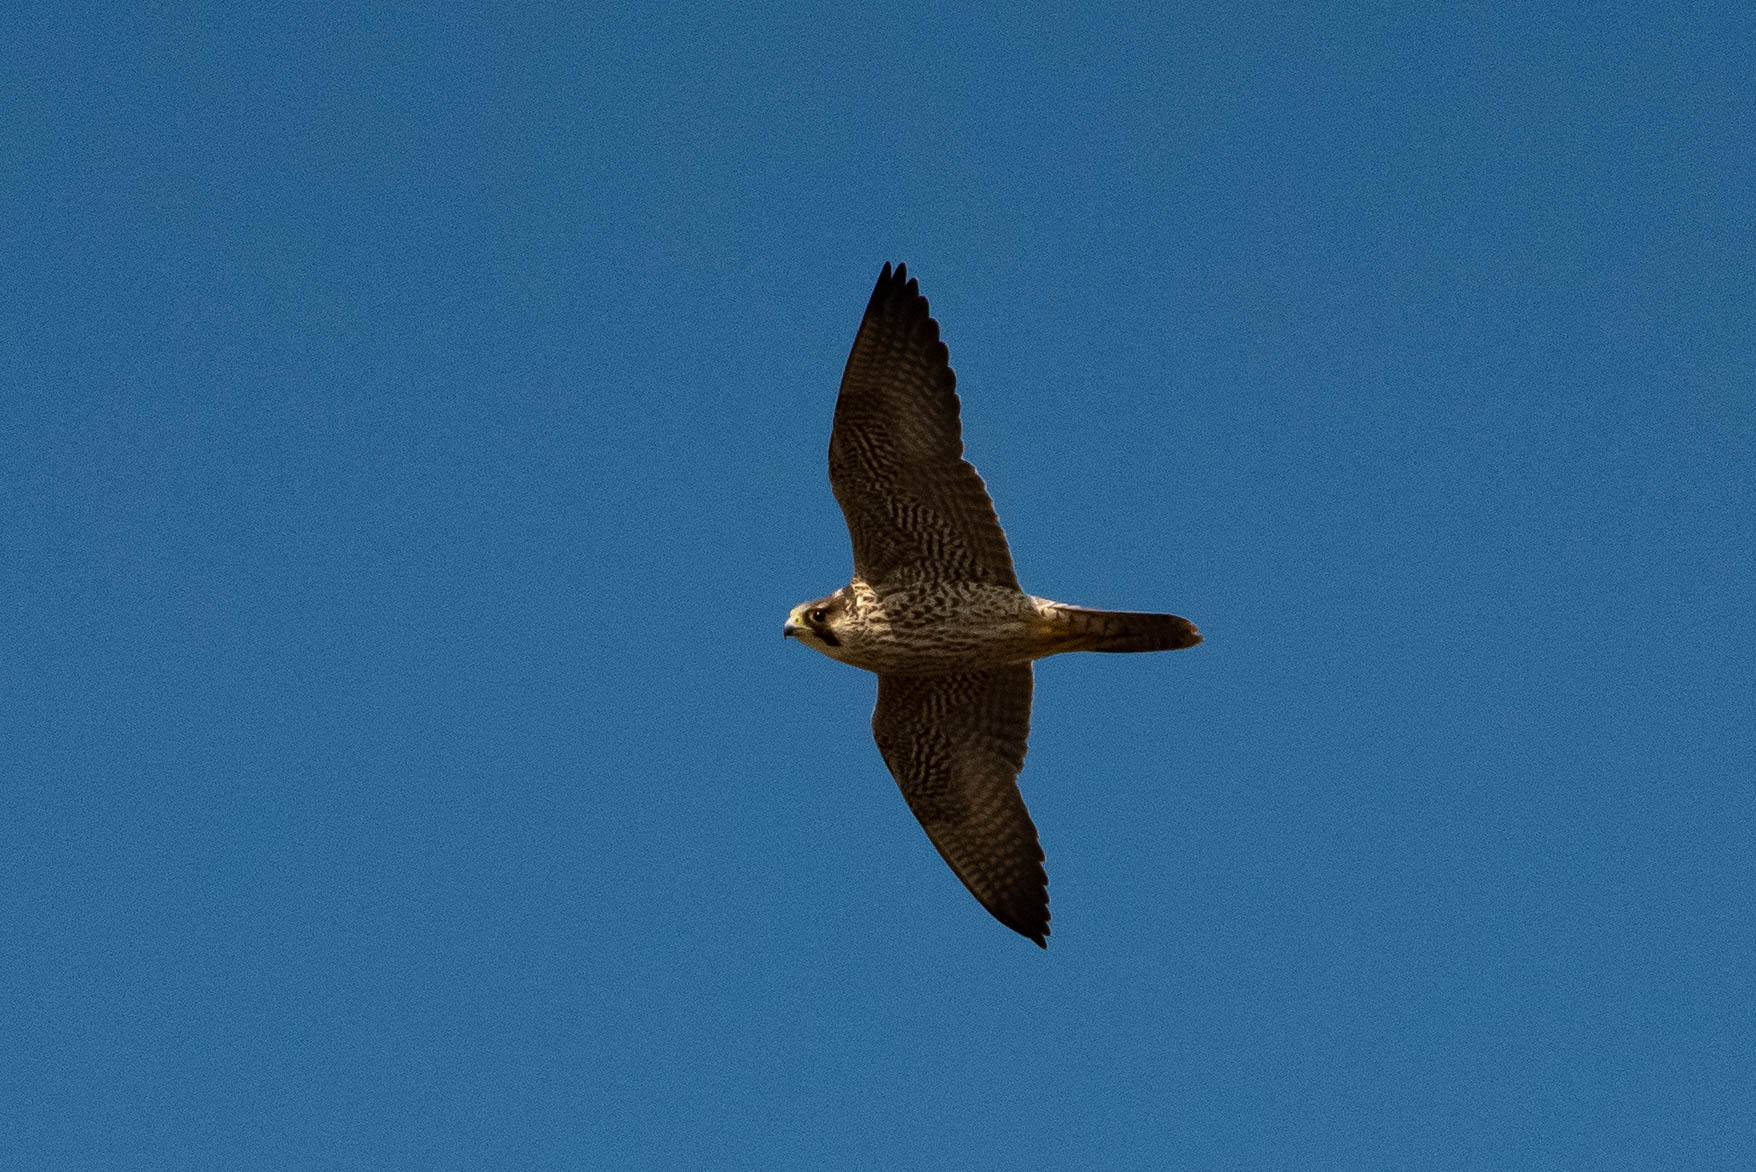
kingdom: Animalia
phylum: Chordata
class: Aves
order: Falconiformes
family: Falconidae
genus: Falco
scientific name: Falco peregrinus
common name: Peregrine falcon
